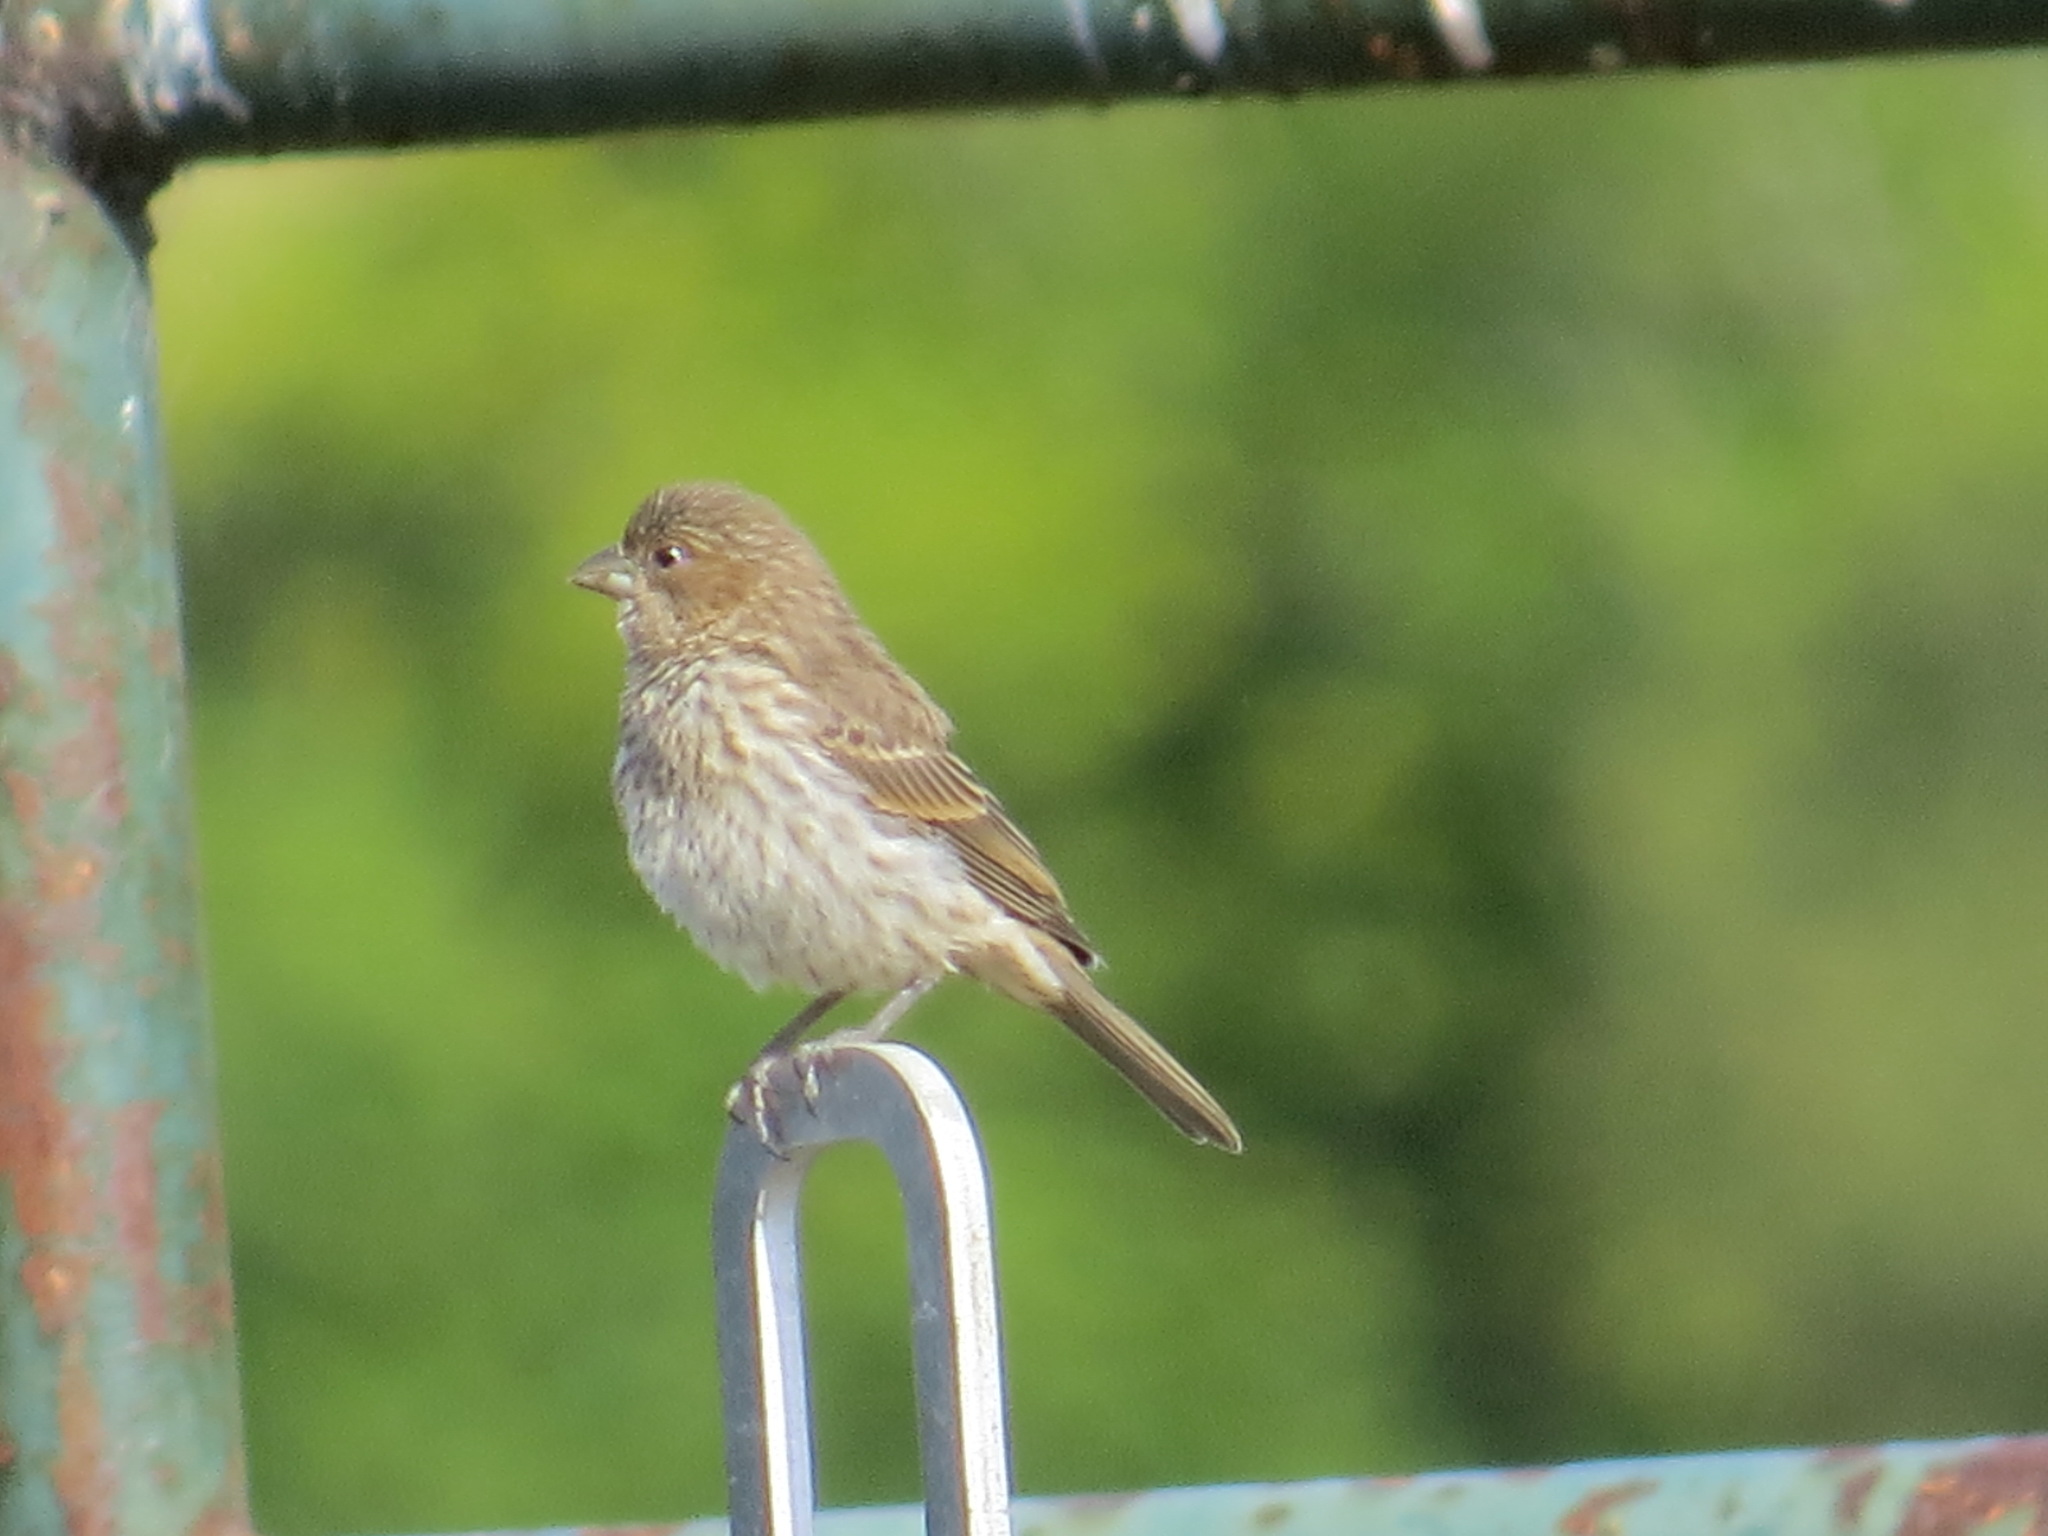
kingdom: Animalia
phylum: Chordata
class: Aves
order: Passeriformes
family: Fringillidae
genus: Haemorhous
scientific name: Haemorhous mexicanus
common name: House finch
